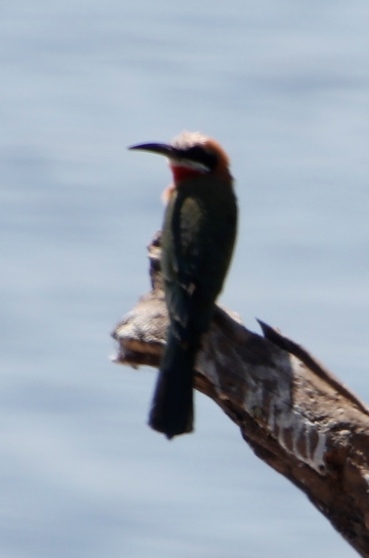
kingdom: Animalia
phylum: Chordata
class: Aves
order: Coraciiformes
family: Meropidae
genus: Merops
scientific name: Merops bullockoides
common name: White-fronted bee-eater
